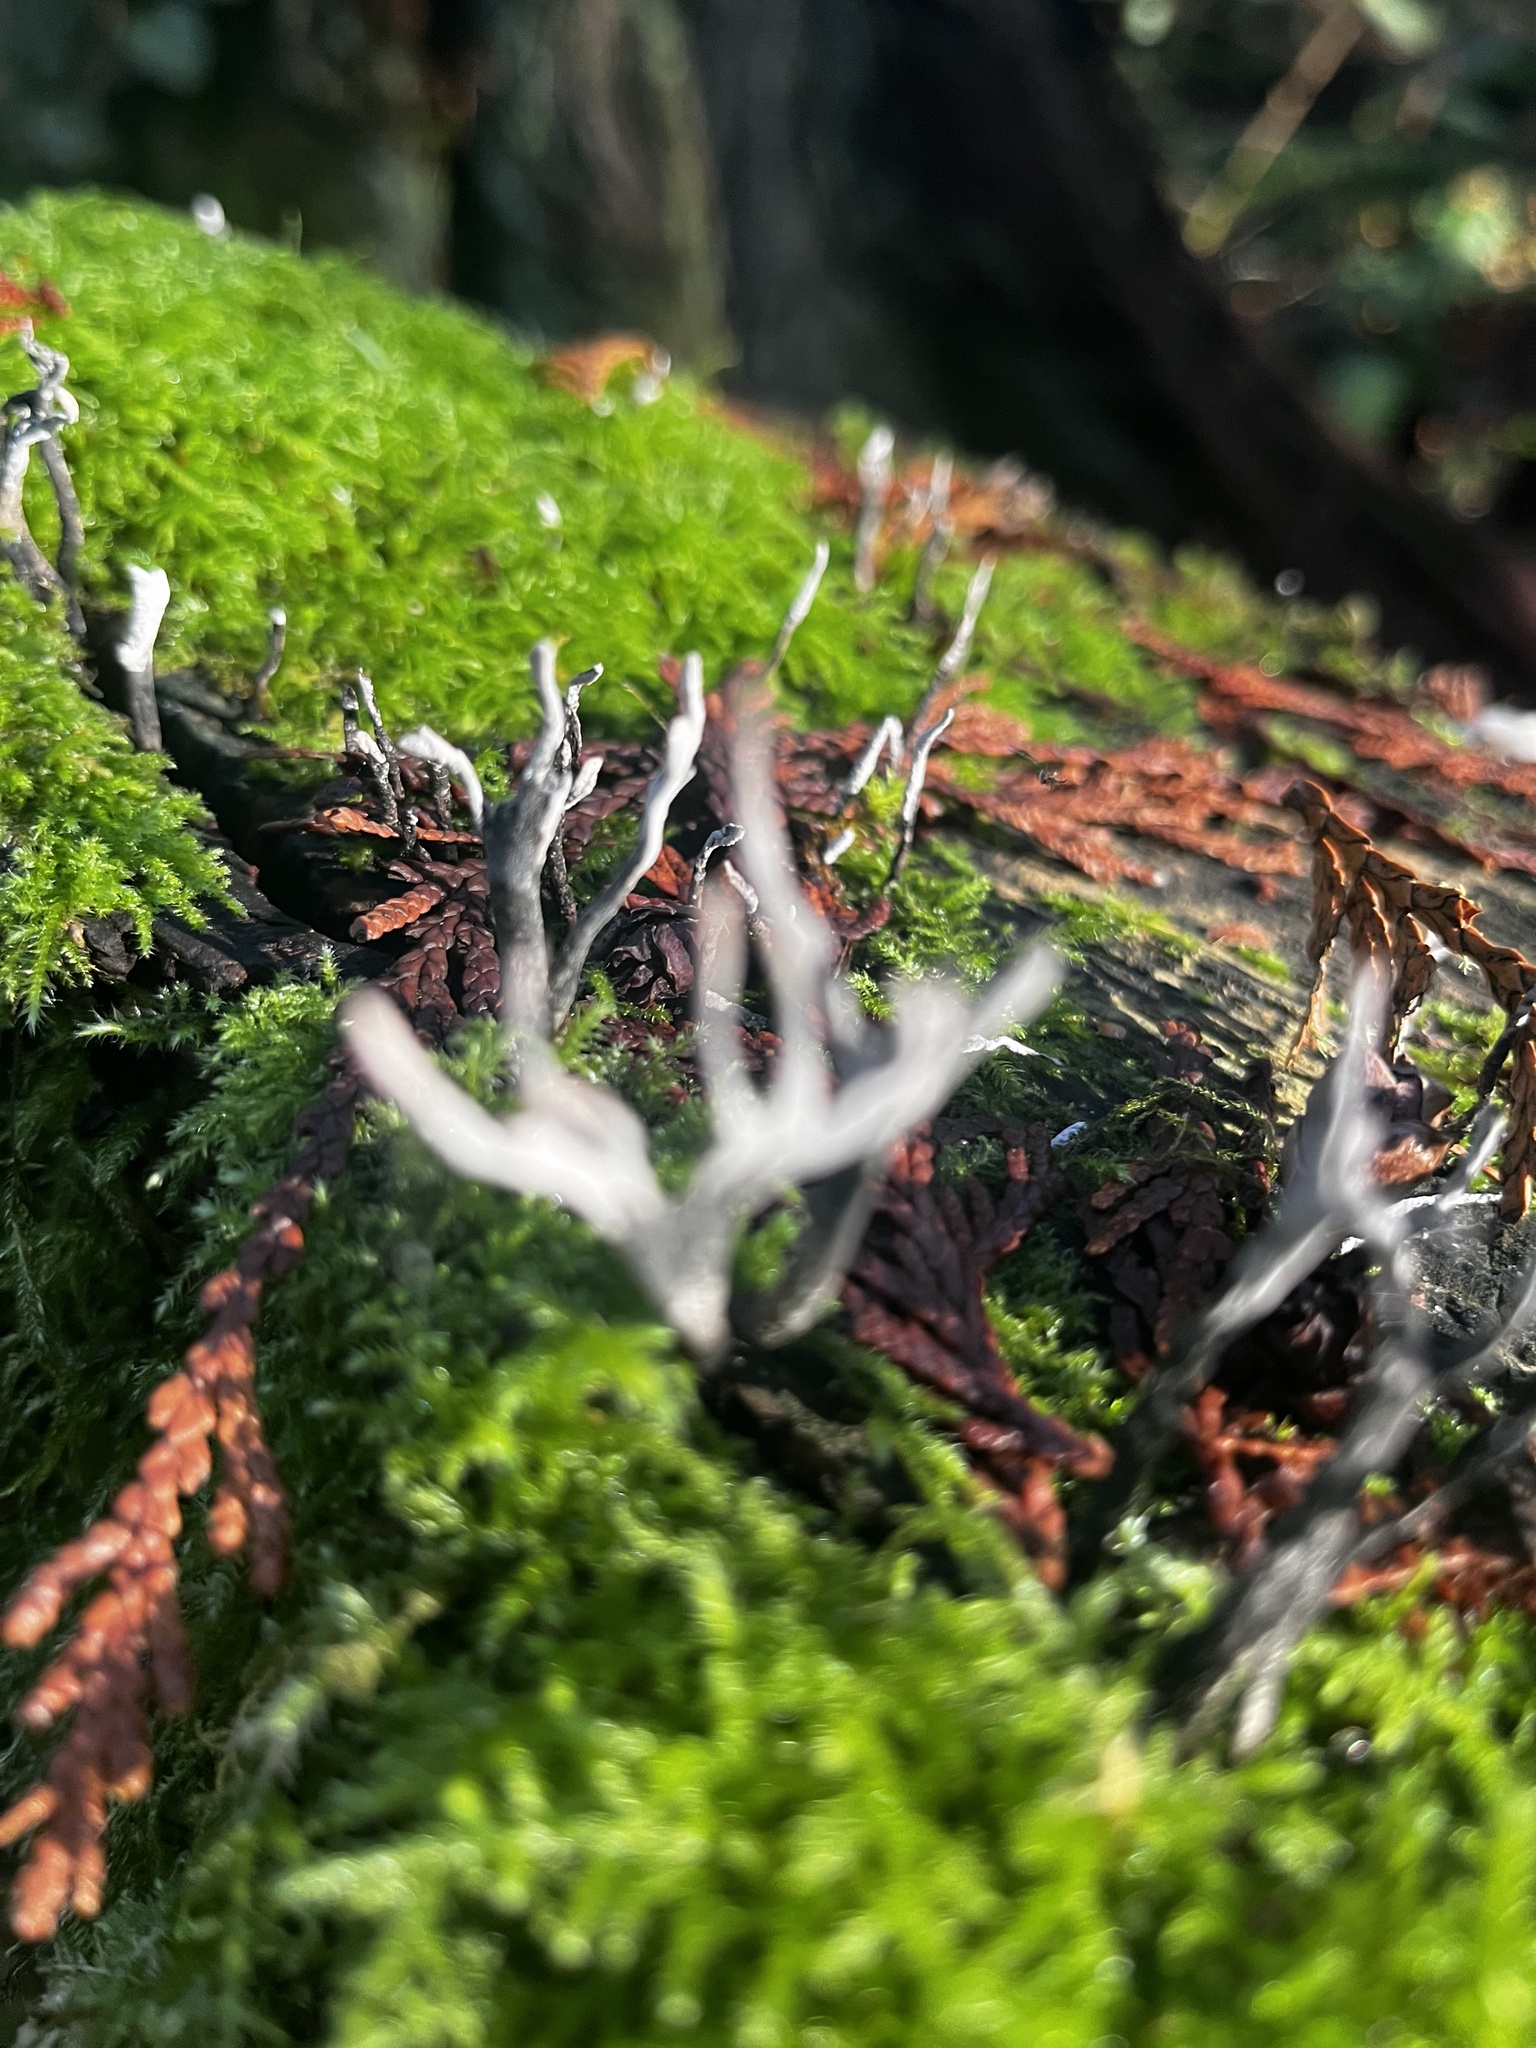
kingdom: Fungi
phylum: Ascomycota
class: Sordariomycetes
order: Xylariales
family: Xylariaceae
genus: Xylaria
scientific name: Xylaria hypoxylon
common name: Candle-snuff fungus
